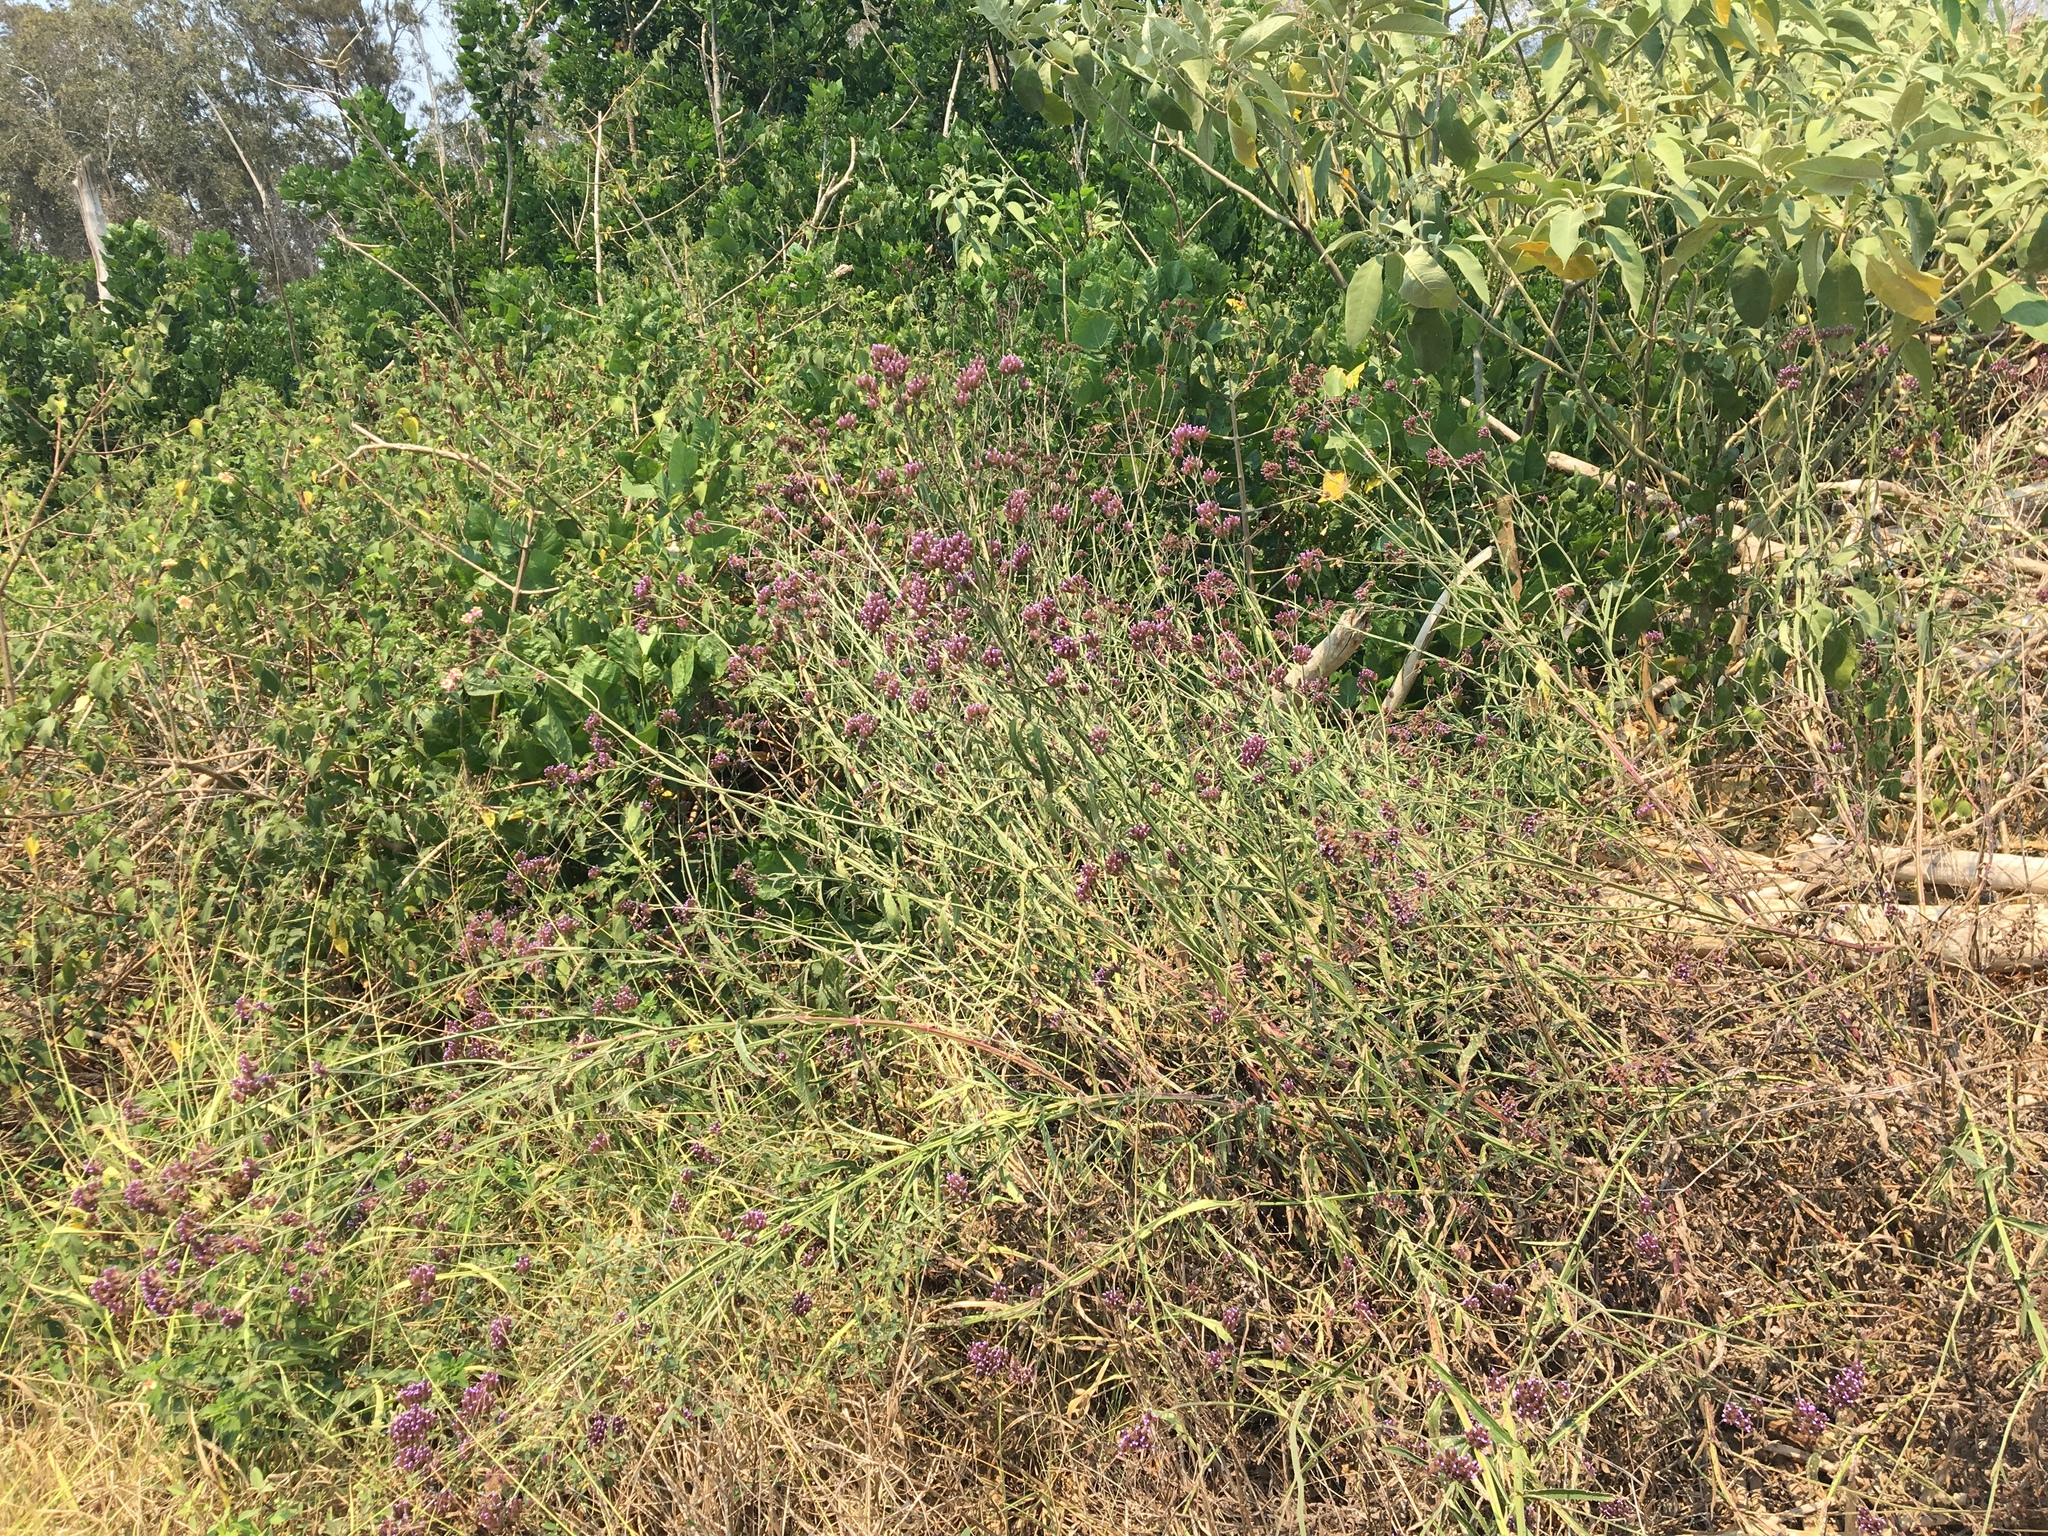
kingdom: Plantae
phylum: Tracheophyta
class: Magnoliopsida
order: Lamiales
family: Verbenaceae
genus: Verbena
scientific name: Verbena bonariensis
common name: Purpletop vervain
